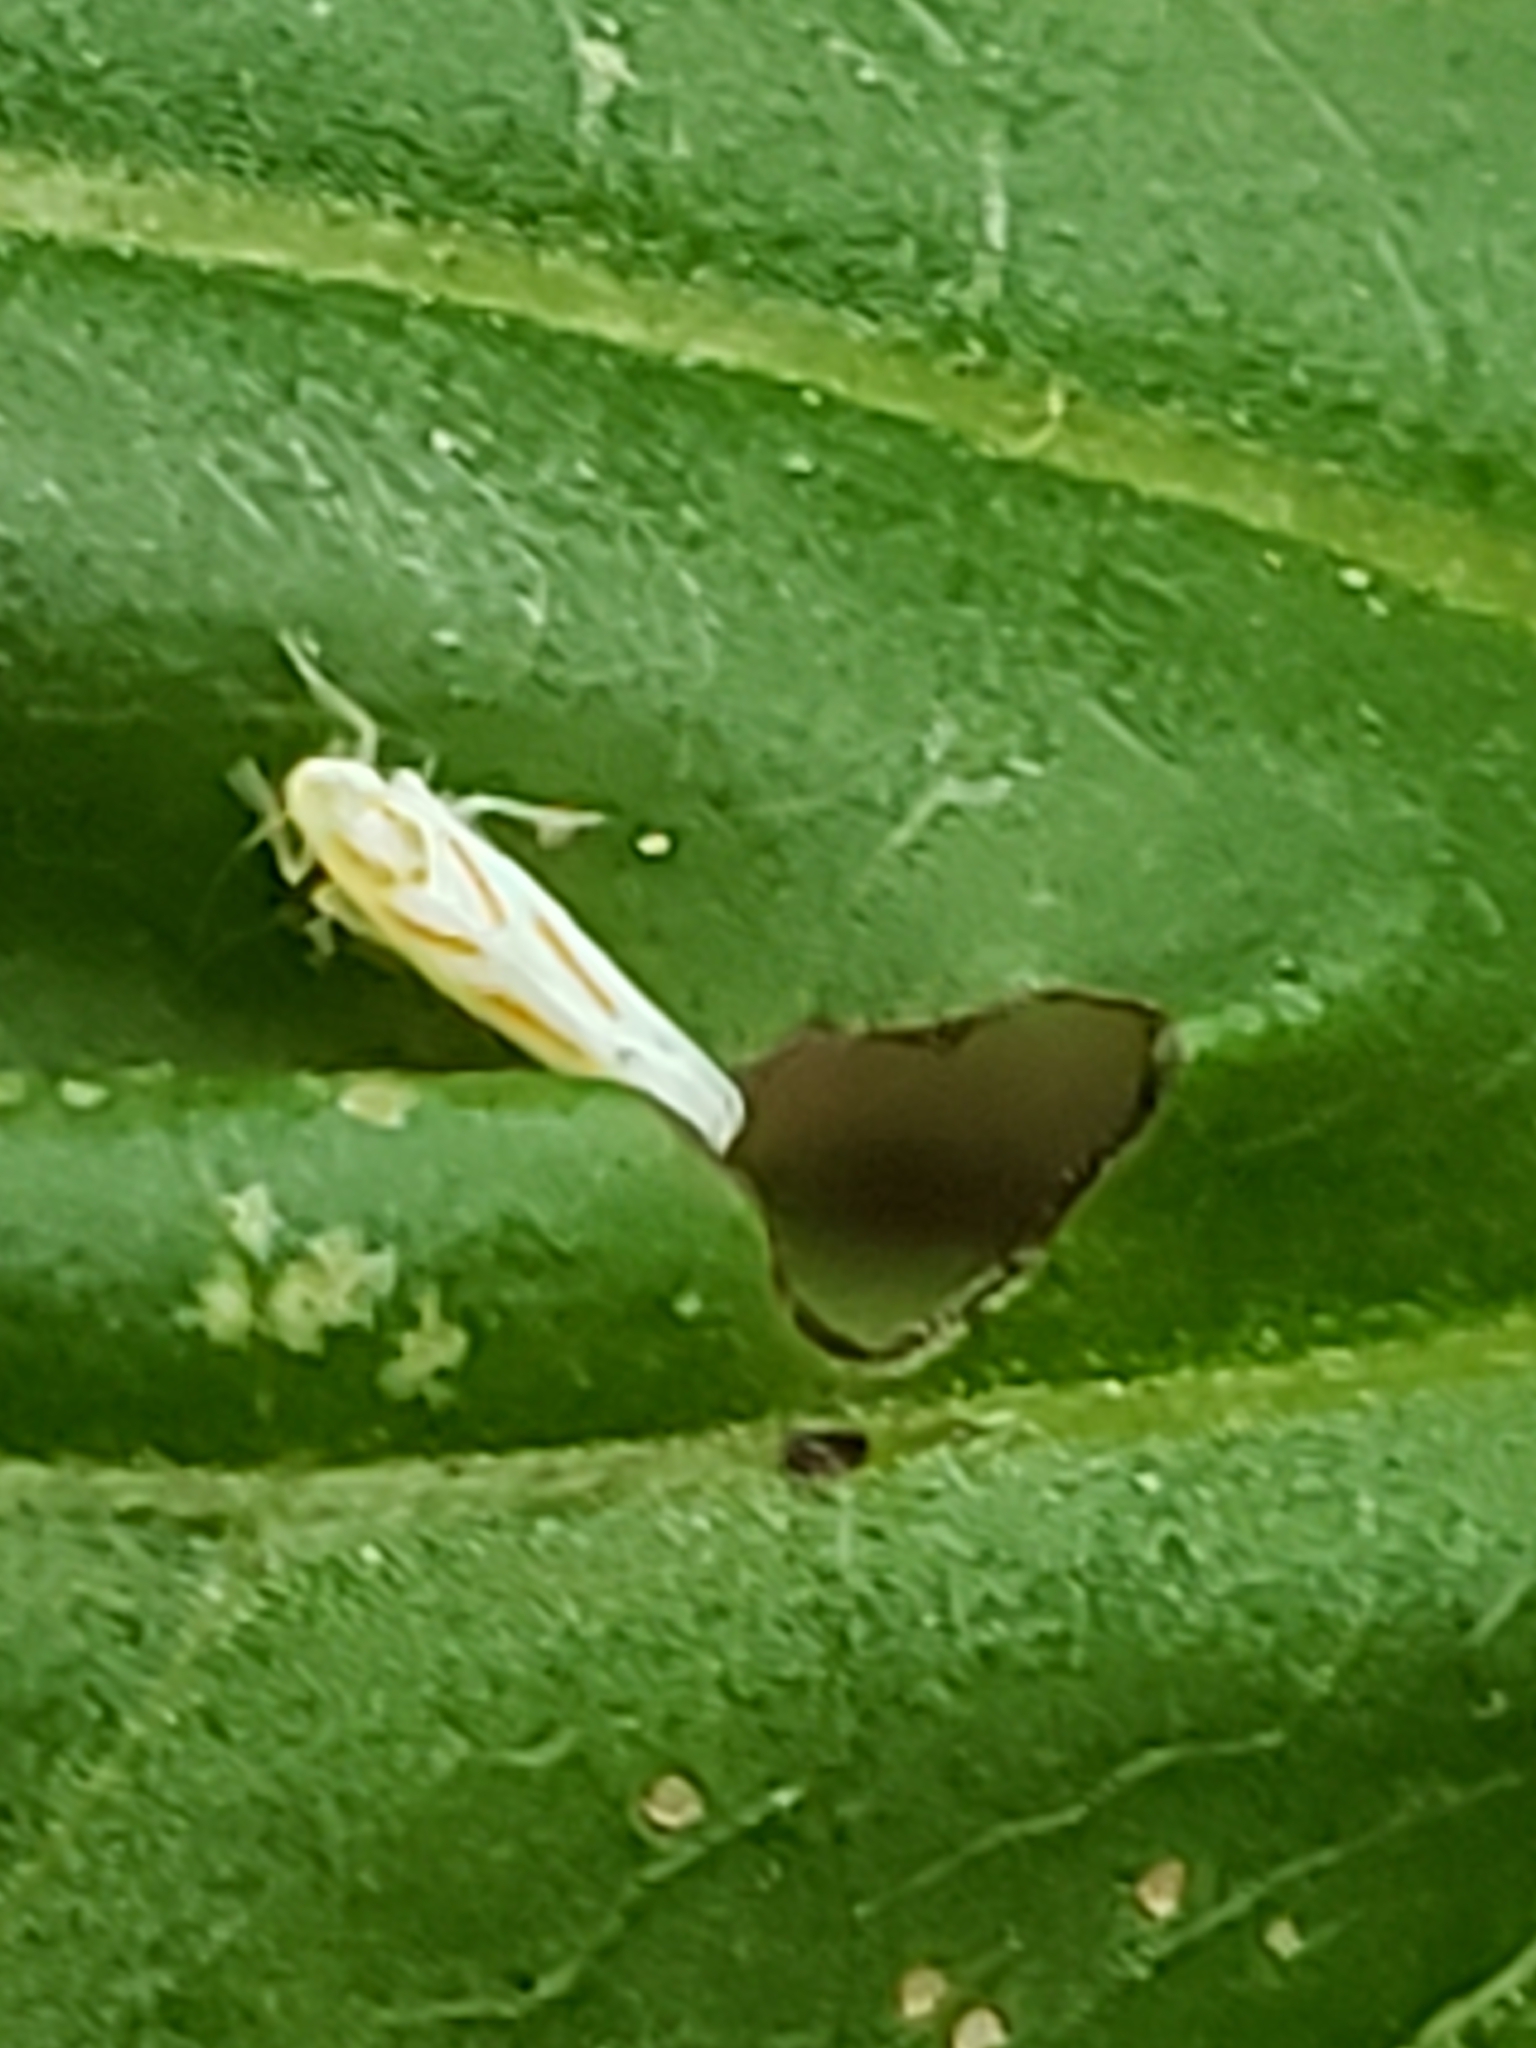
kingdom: Animalia
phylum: Arthropoda
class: Insecta
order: Hemiptera
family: Cicadellidae
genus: Dikrella
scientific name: Dikrella cruentata
